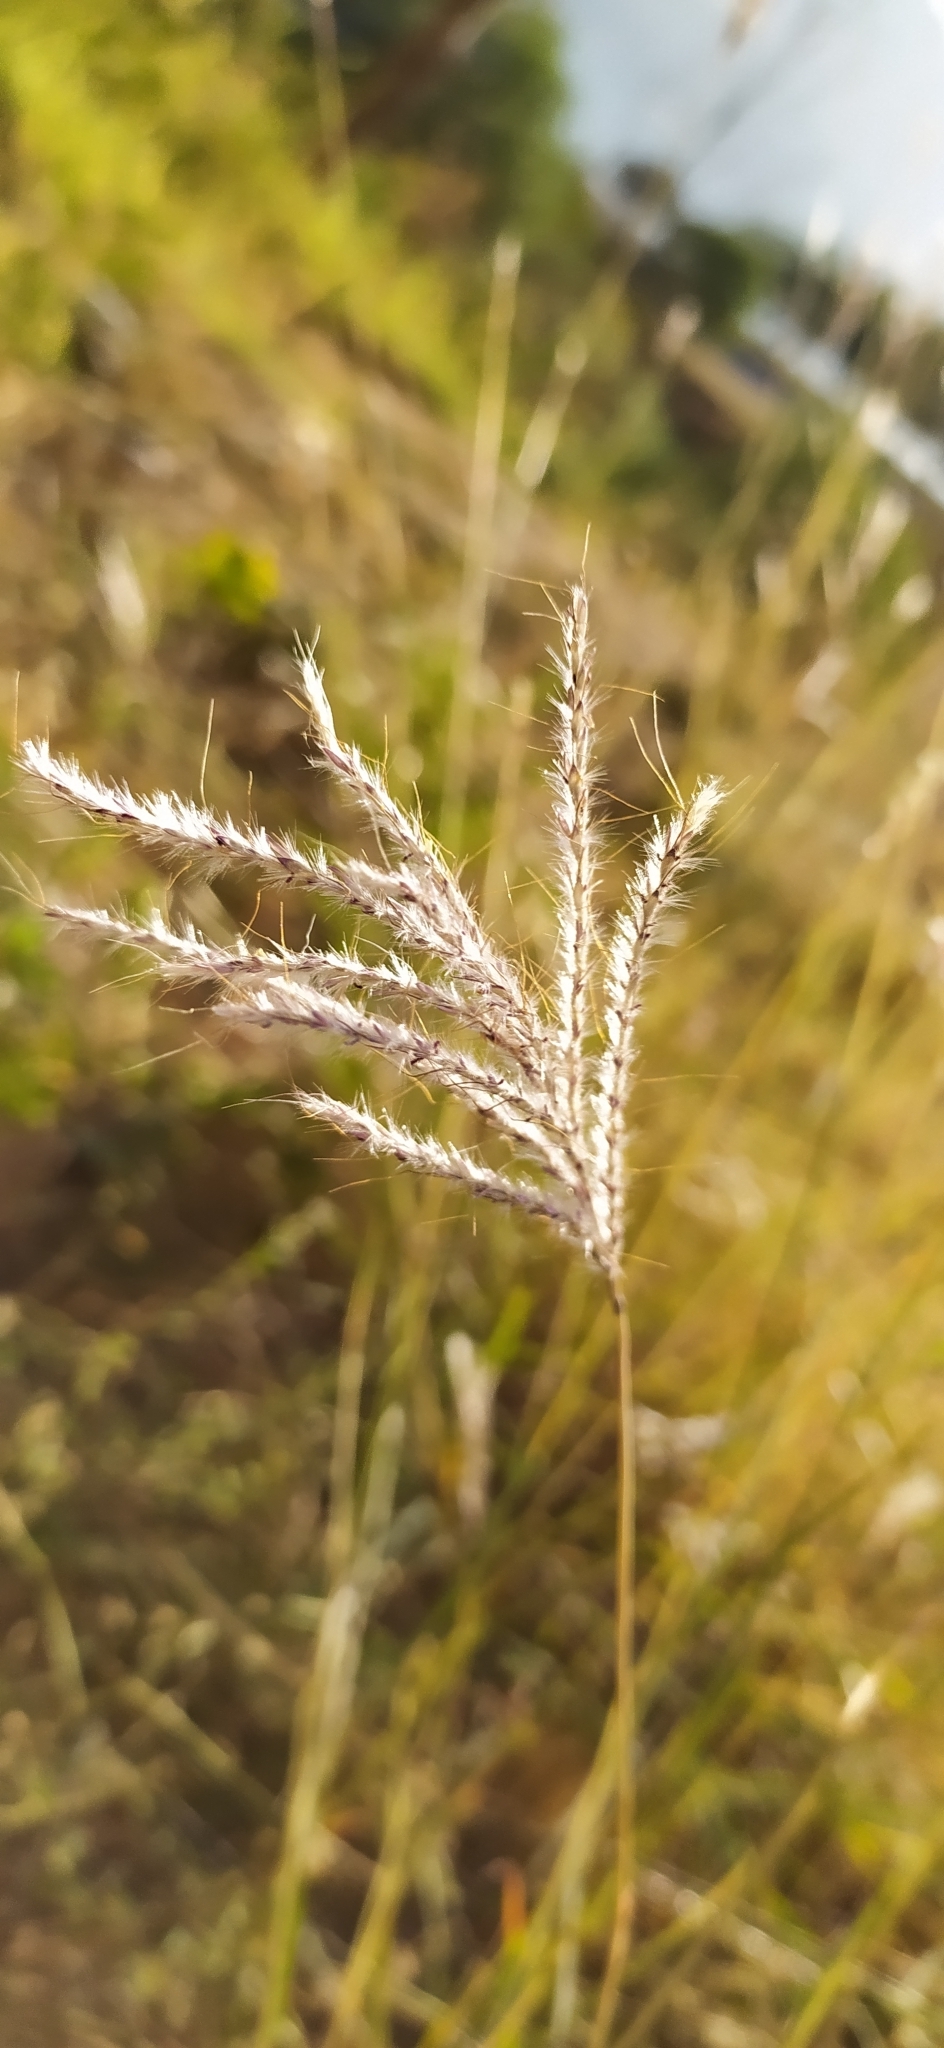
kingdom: Plantae
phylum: Tracheophyta
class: Liliopsida
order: Poales
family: Poaceae
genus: Bothriochloa
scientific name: Bothriochloa ischaemum
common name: Yellow bluestem
